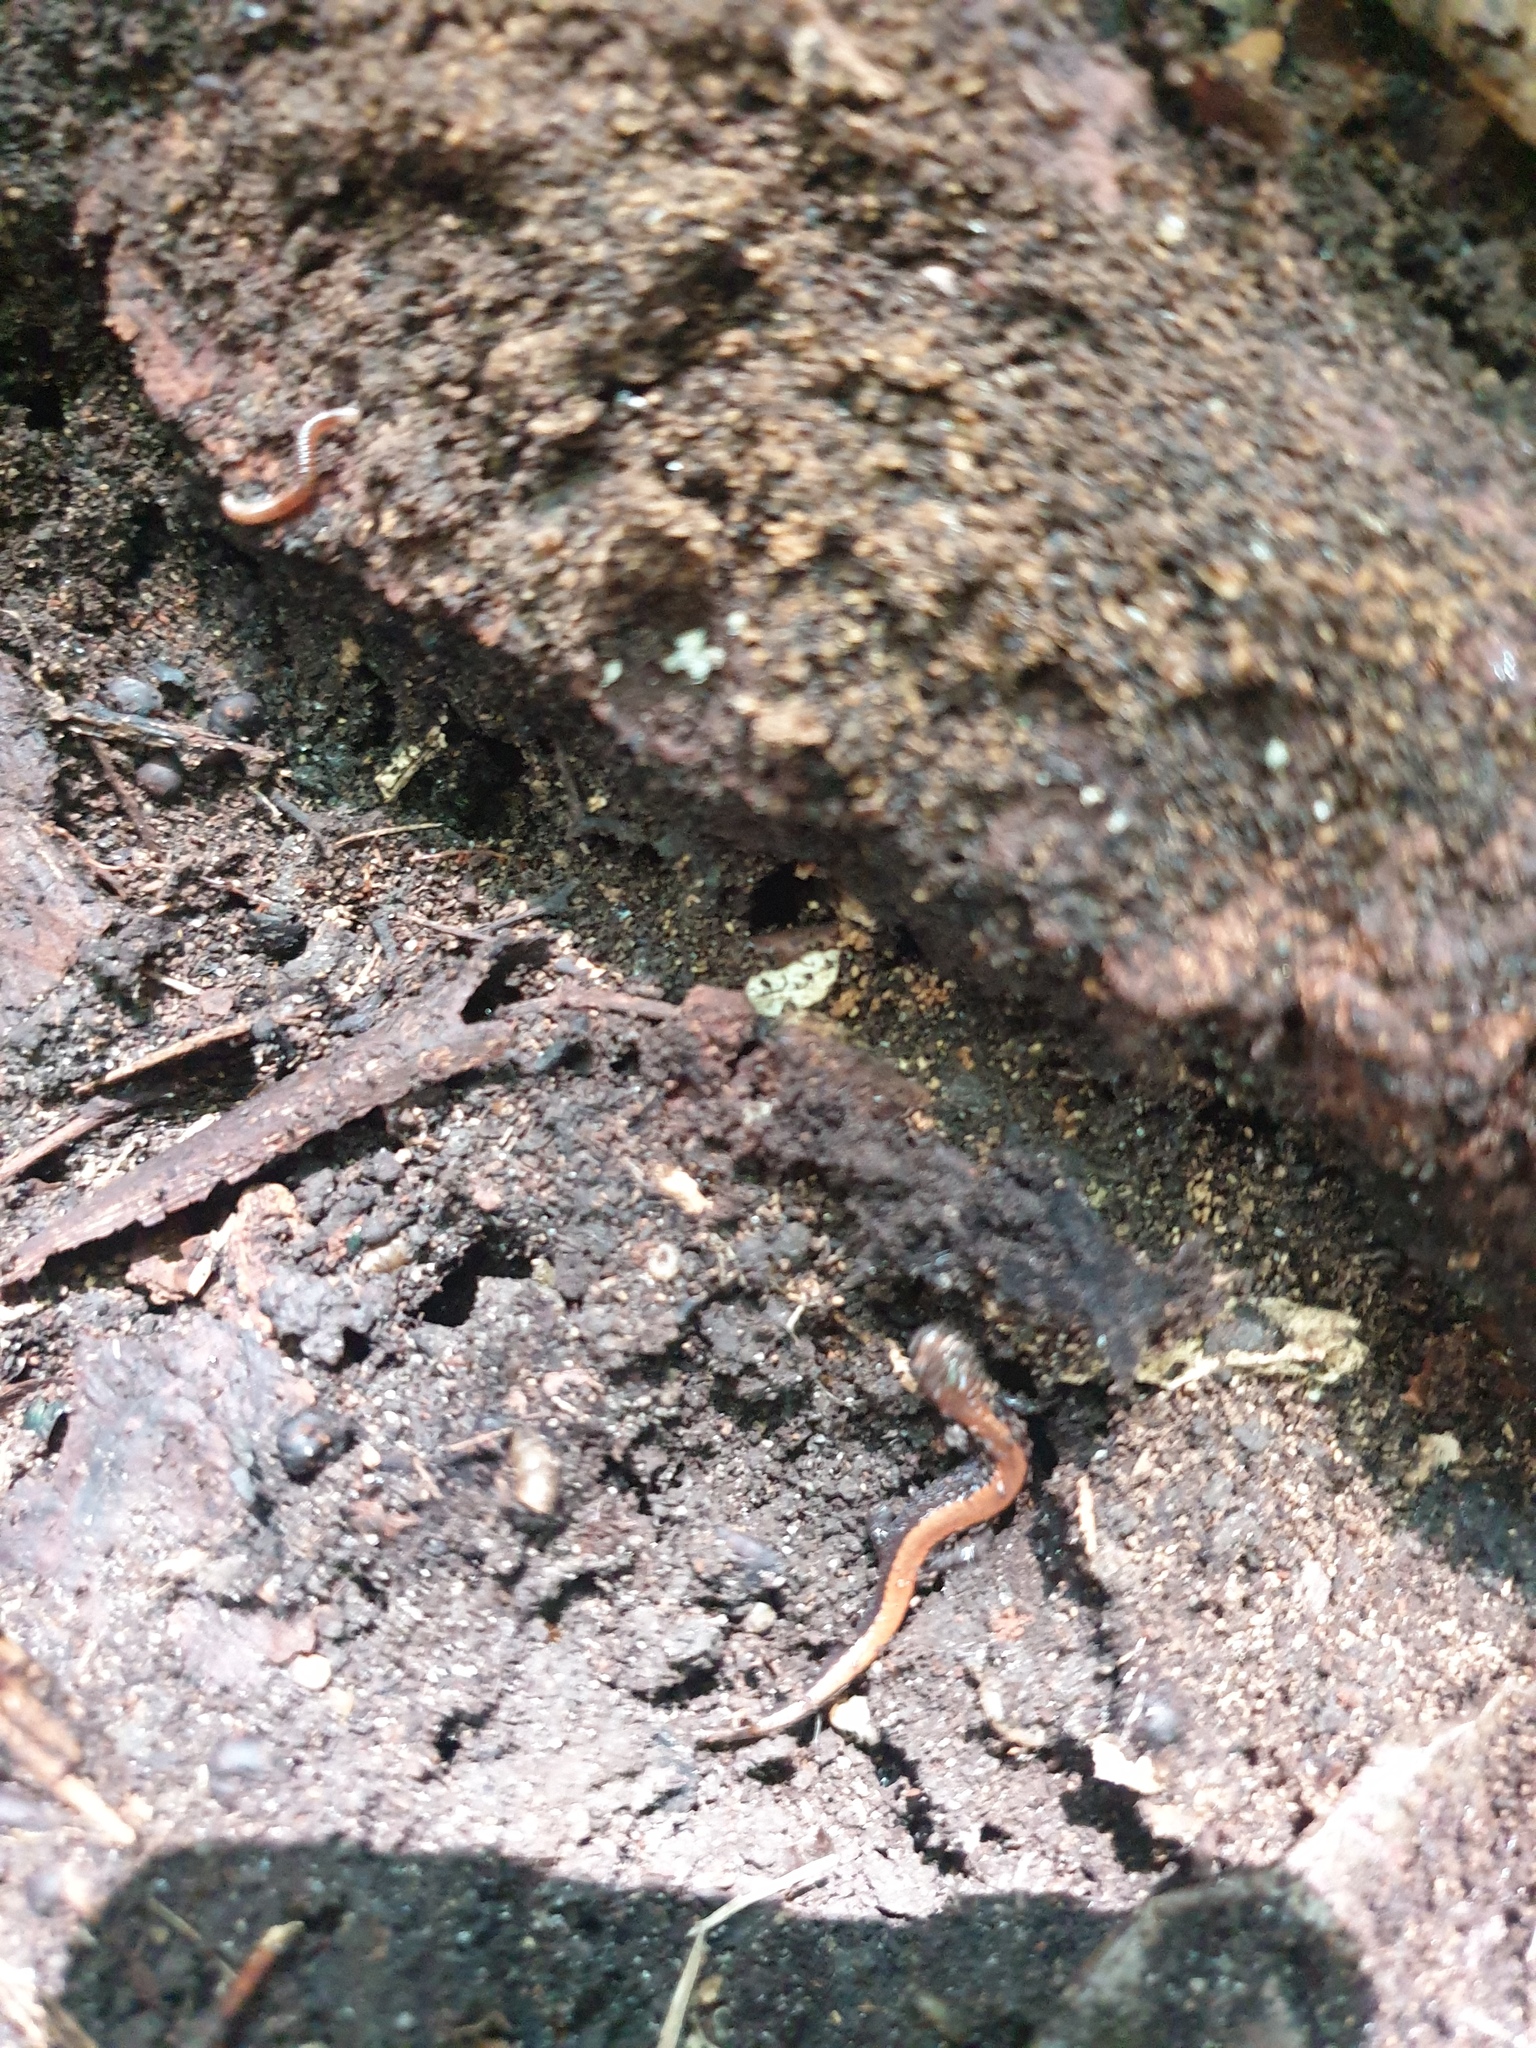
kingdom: Animalia
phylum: Chordata
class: Amphibia
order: Caudata
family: Plethodontidae
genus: Plethodon
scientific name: Plethodon cinereus
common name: Redback salamander
